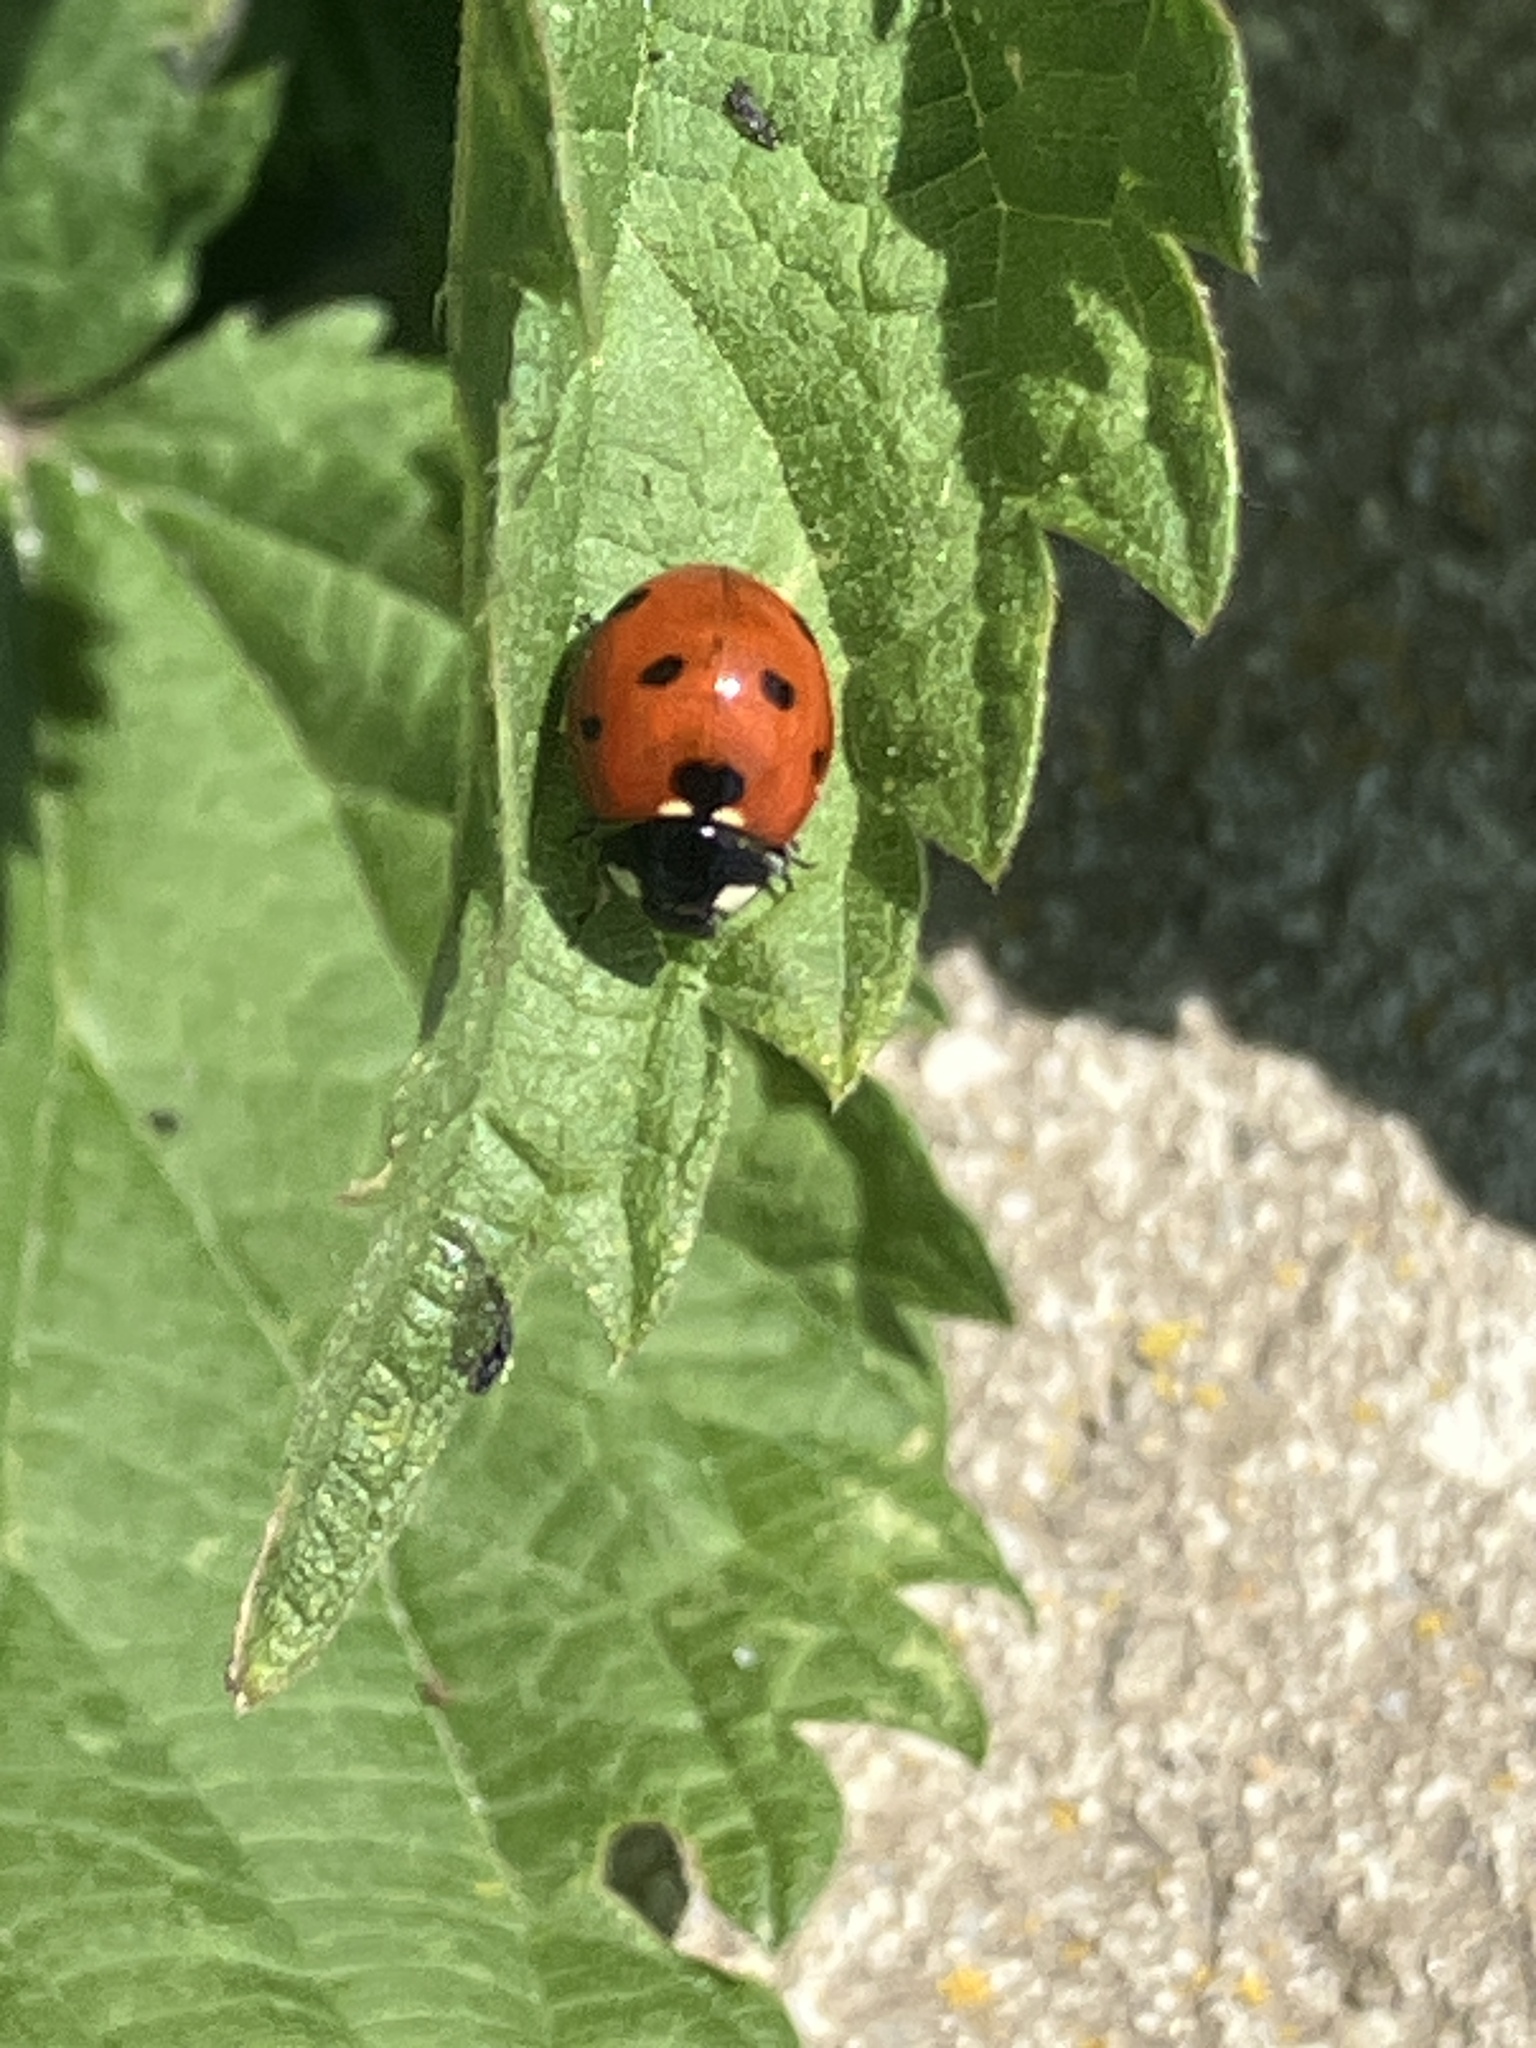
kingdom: Animalia
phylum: Arthropoda
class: Insecta
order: Coleoptera
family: Coccinellidae
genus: Coccinella
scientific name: Coccinella septempunctata
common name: Sevenspotted lady beetle
